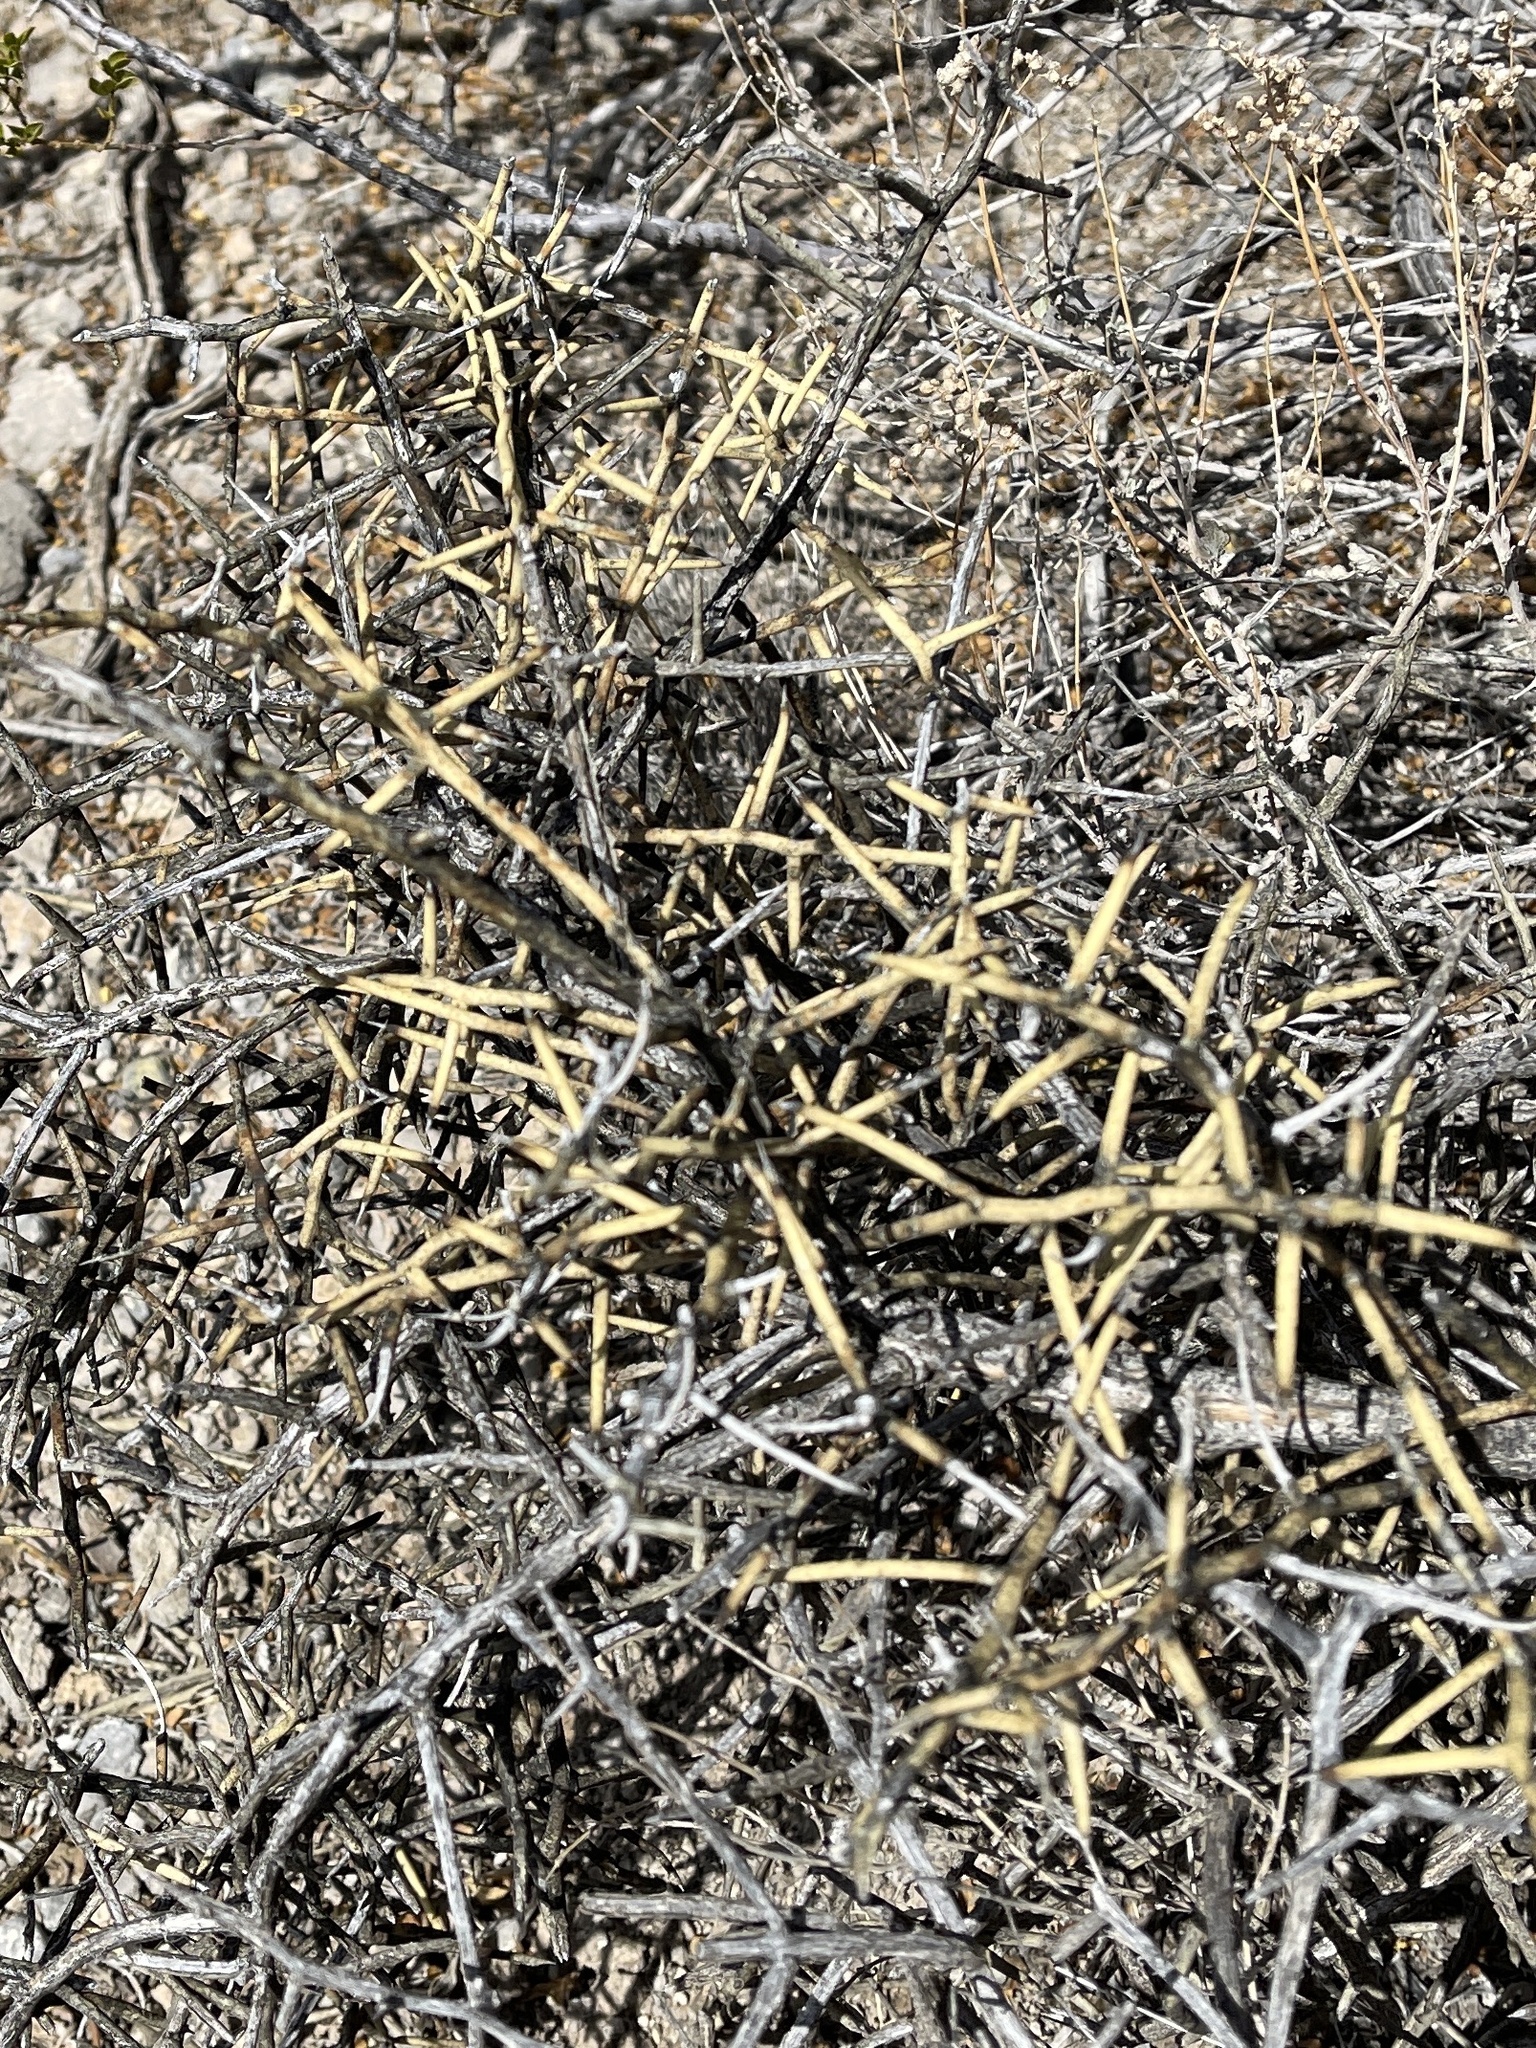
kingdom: Plantae
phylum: Tracheophyta
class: Magnoliopsida
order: Brassicales
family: Koeberliniaceae
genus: Koeberlinia
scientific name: Koeberlinia spinosa
